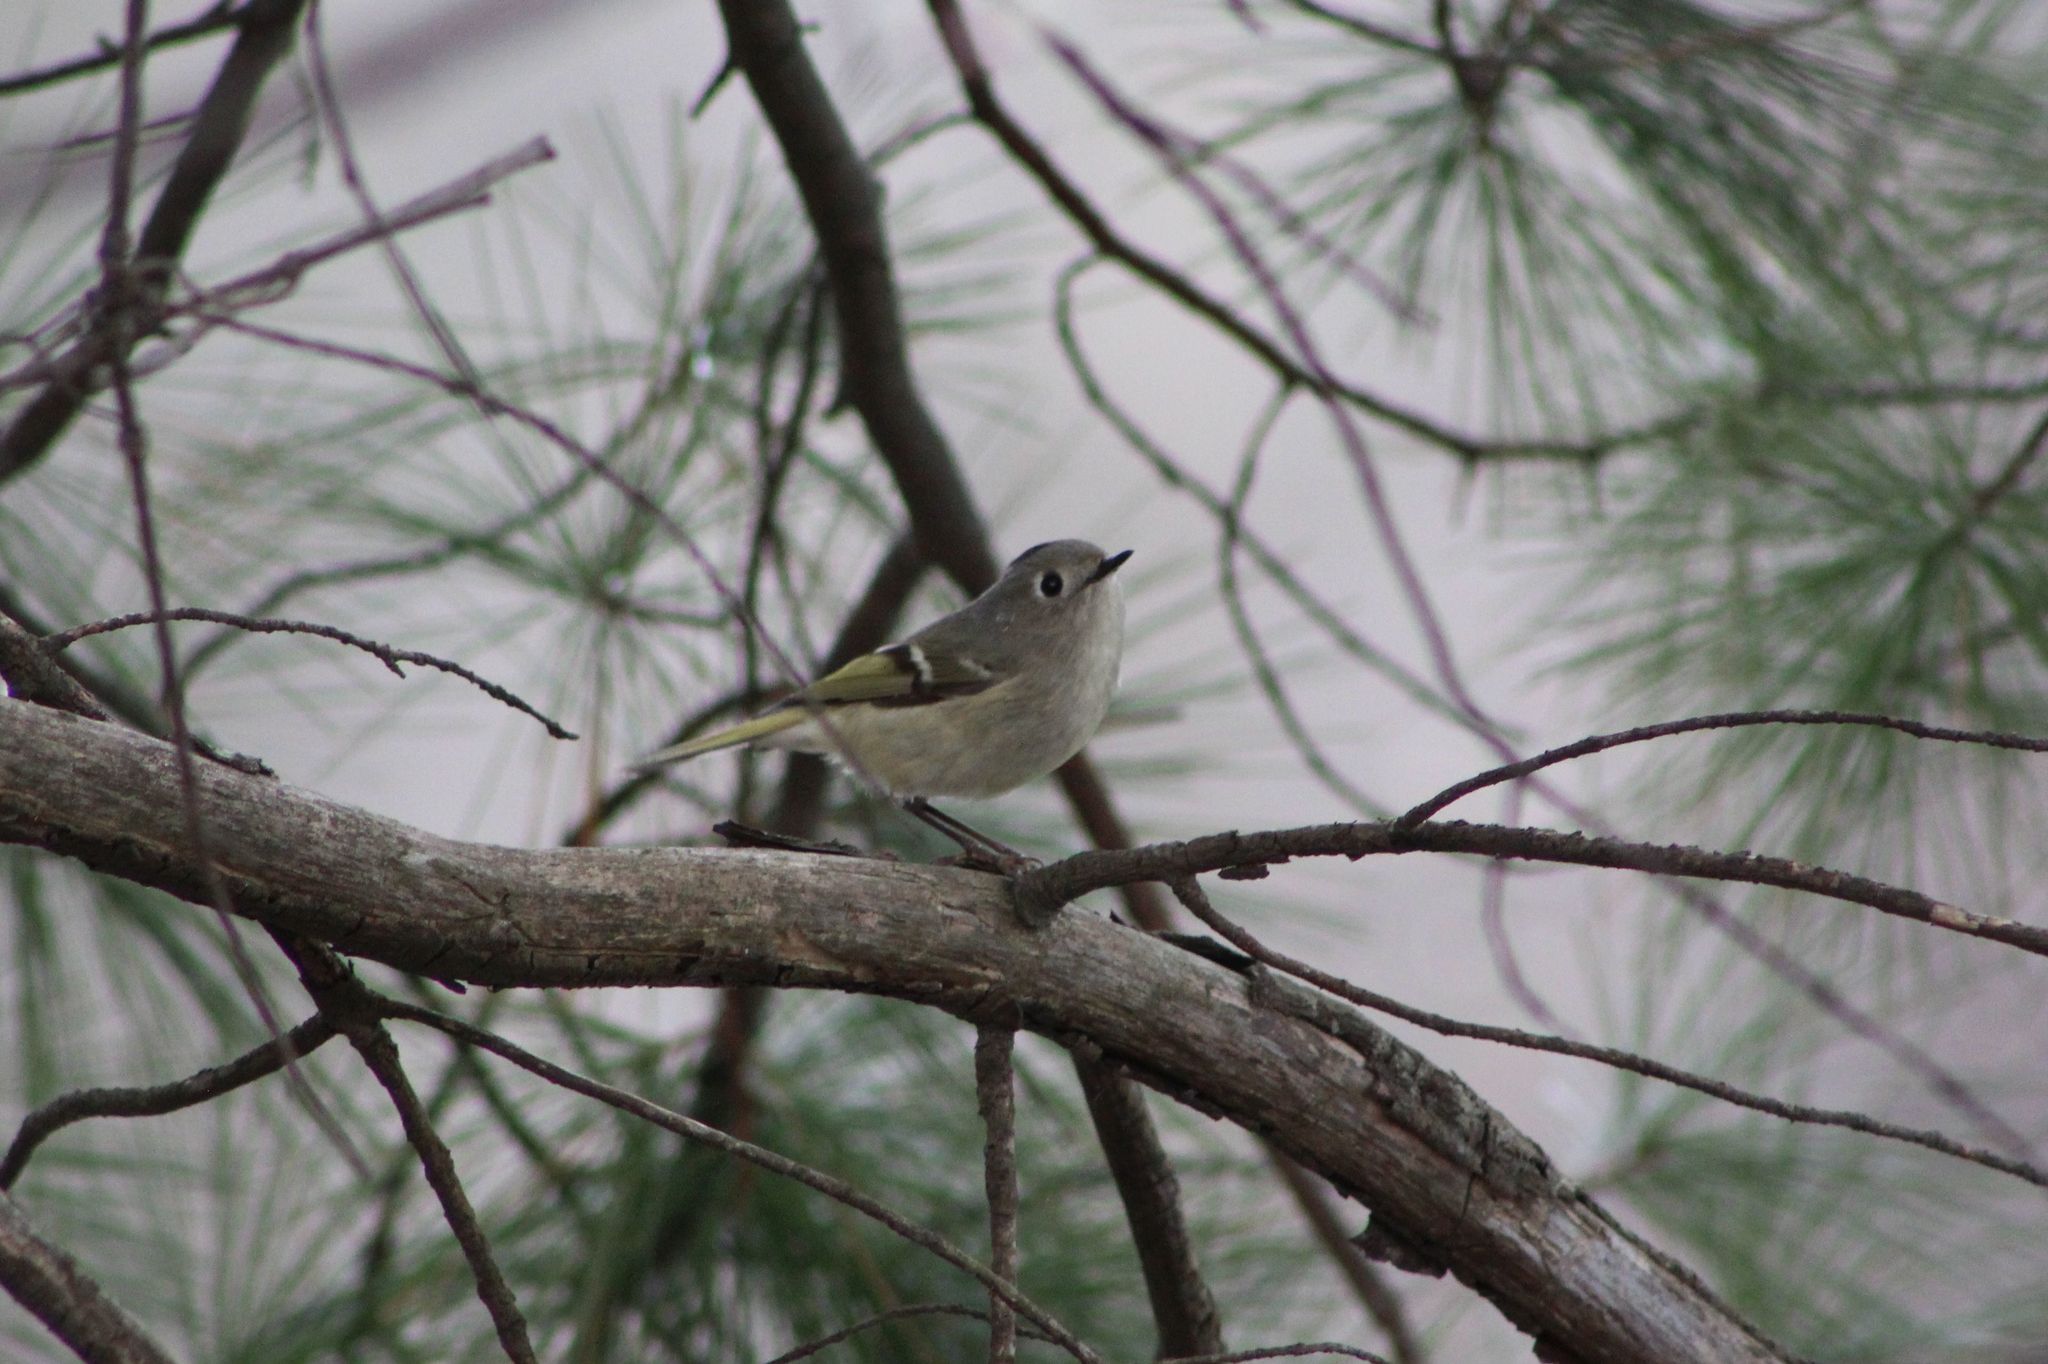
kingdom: Animalia
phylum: Chordata
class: Aves
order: Passeriformes
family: Regulidae
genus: Regulus
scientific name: Regulus calendula
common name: Ruby-crowned kinglet
